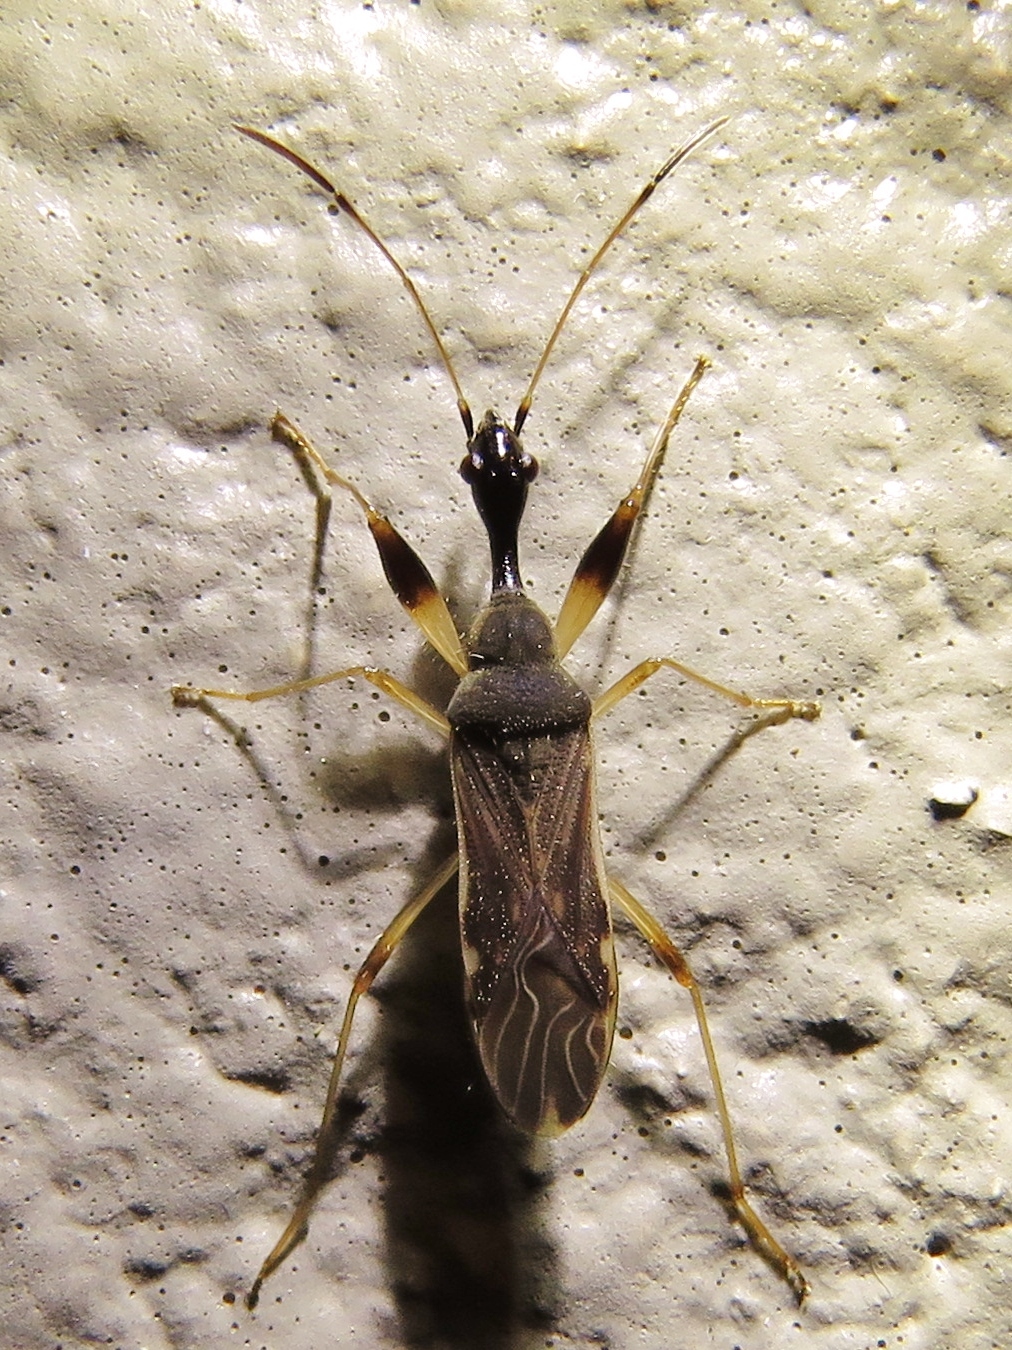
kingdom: Animalia
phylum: Arthropoda
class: Insecta
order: Hemiptera
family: Rhyparochromidae
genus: Myodocha
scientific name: Myodocha serripes
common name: Long-necked seed bug
